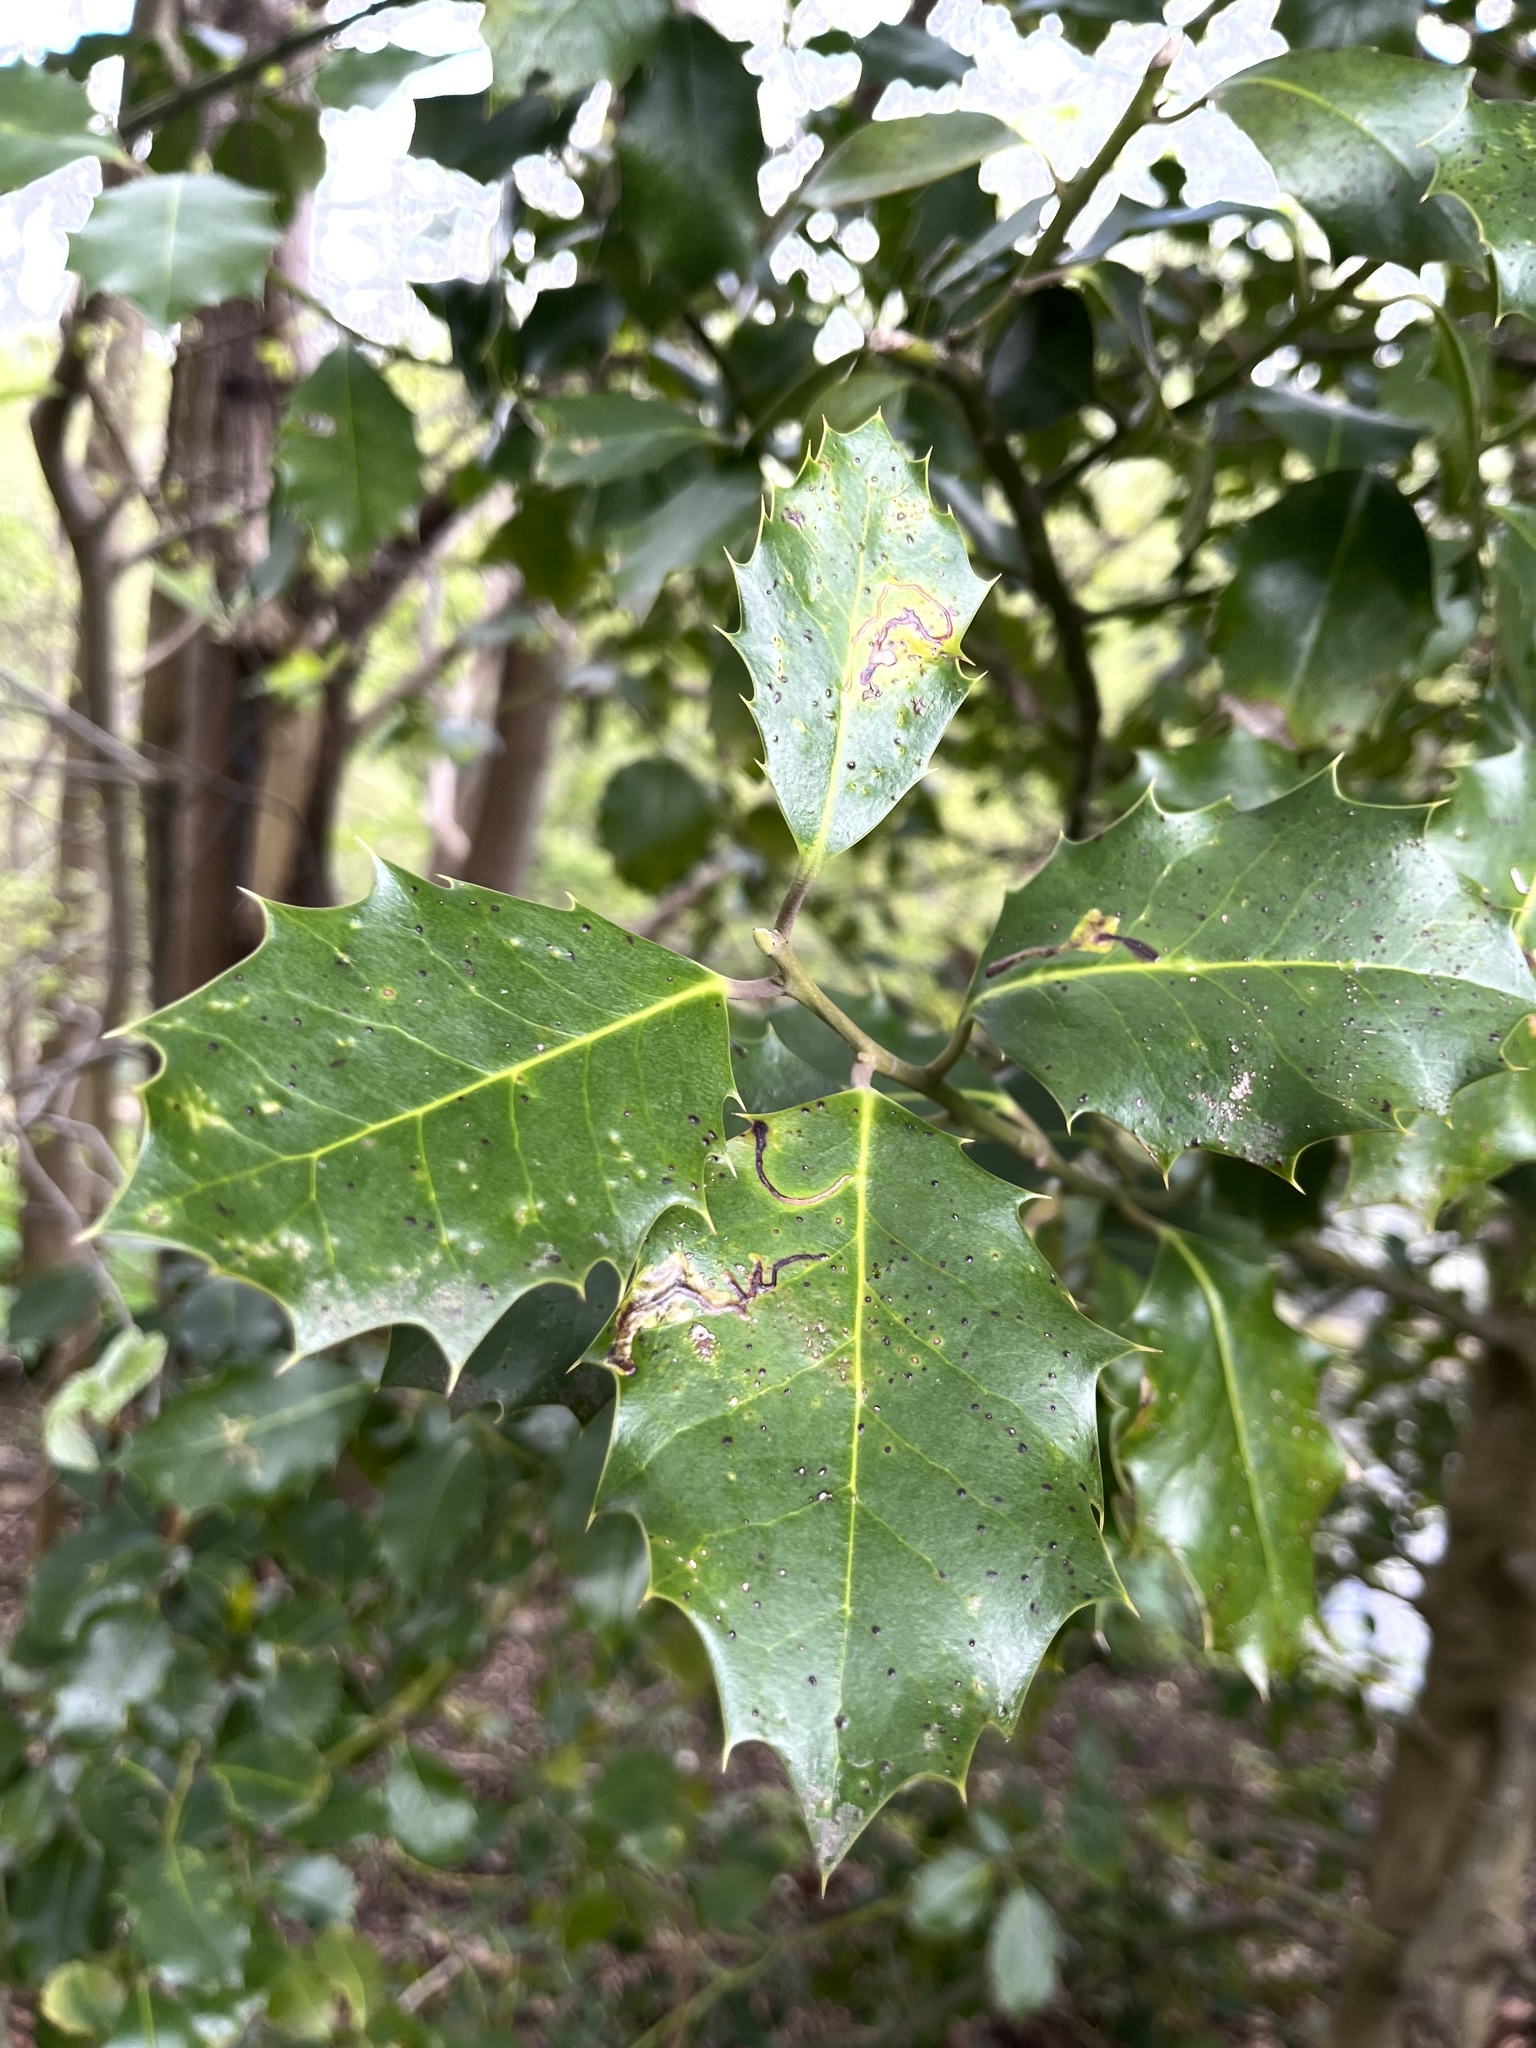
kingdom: Plantae
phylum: Tracheophyta
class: Magnoliopsida
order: Aquifoliales
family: Aquifoliaceae
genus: Ilex
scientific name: Ilex aquifolium
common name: English holly
